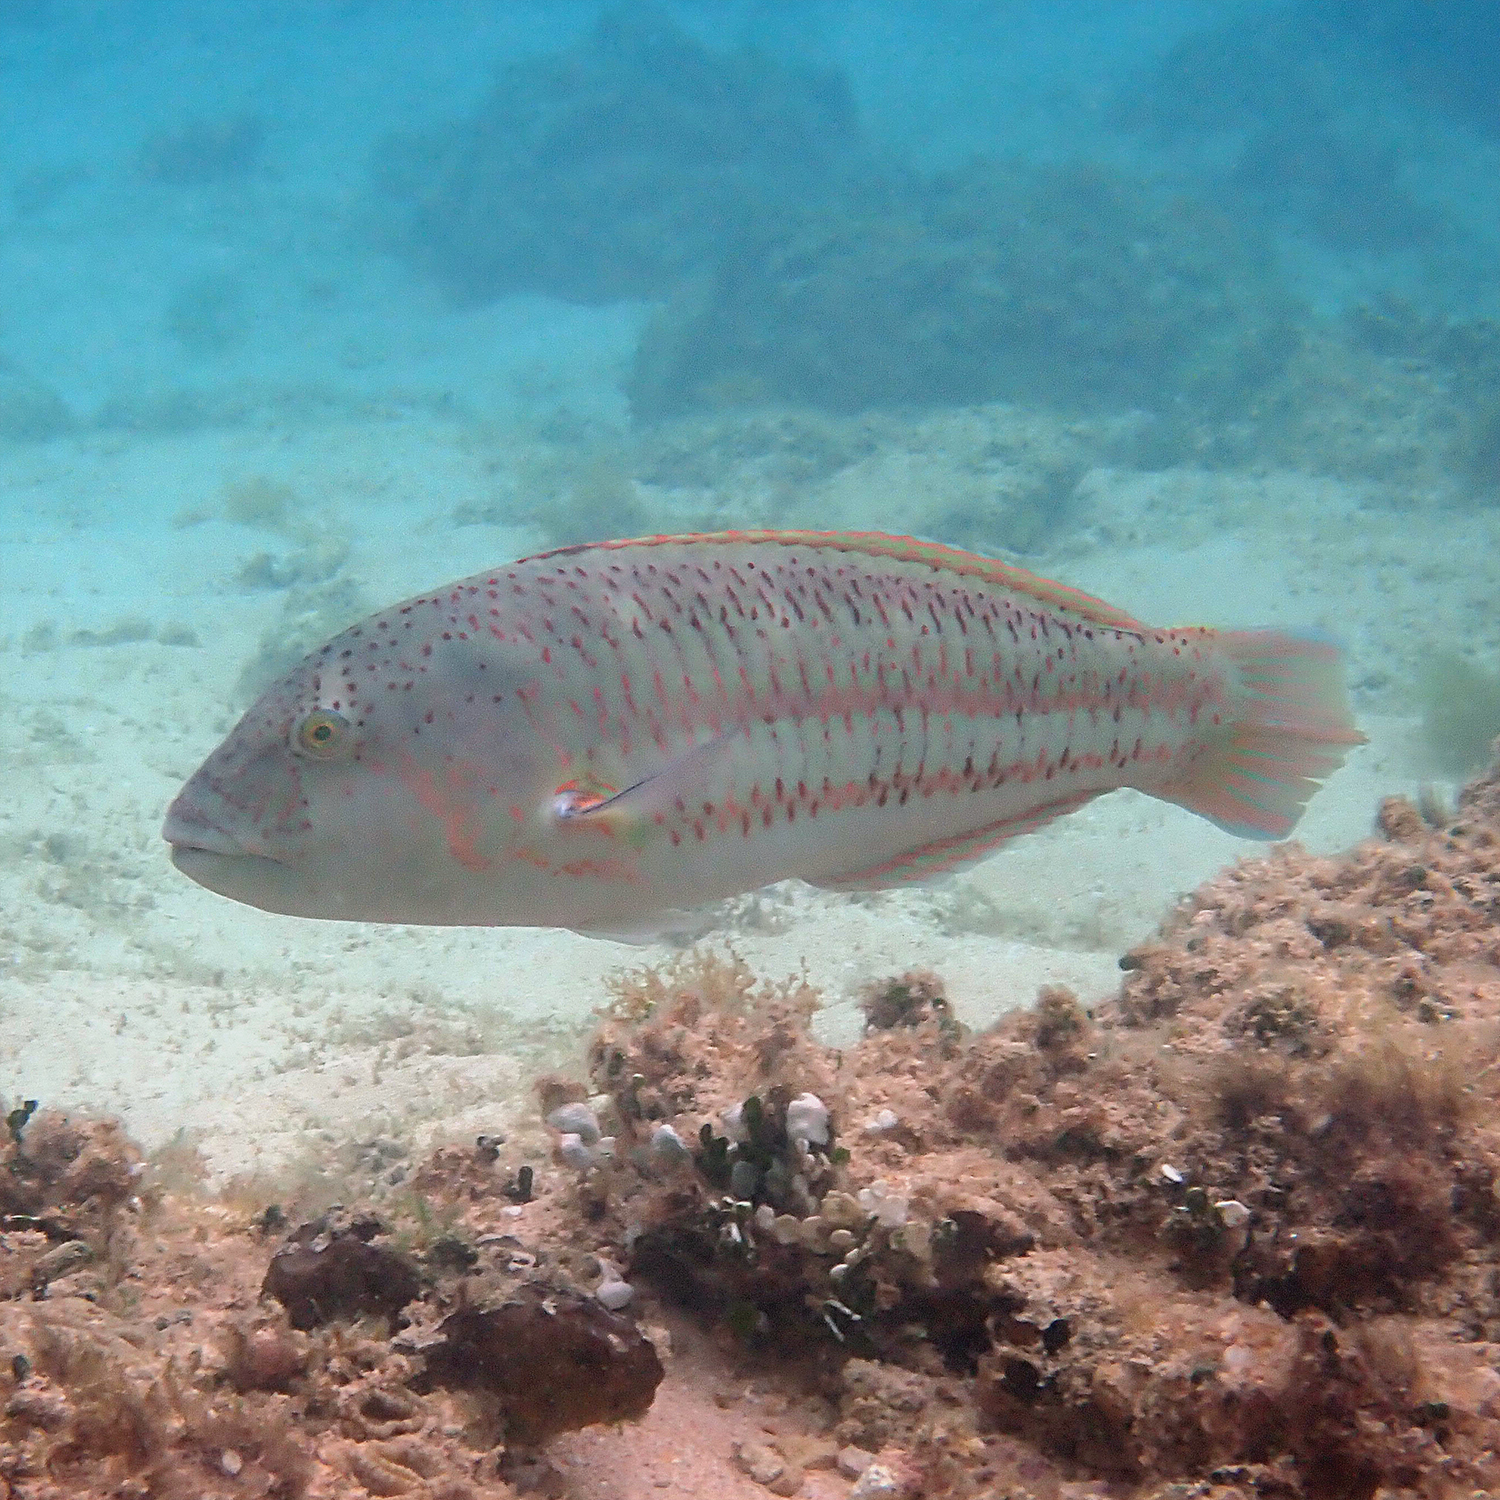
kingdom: Animalia
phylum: Chordata
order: Perciformes
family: Labridae
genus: Thalassoma
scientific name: Thalassoma purpureum
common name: Parrotfish
